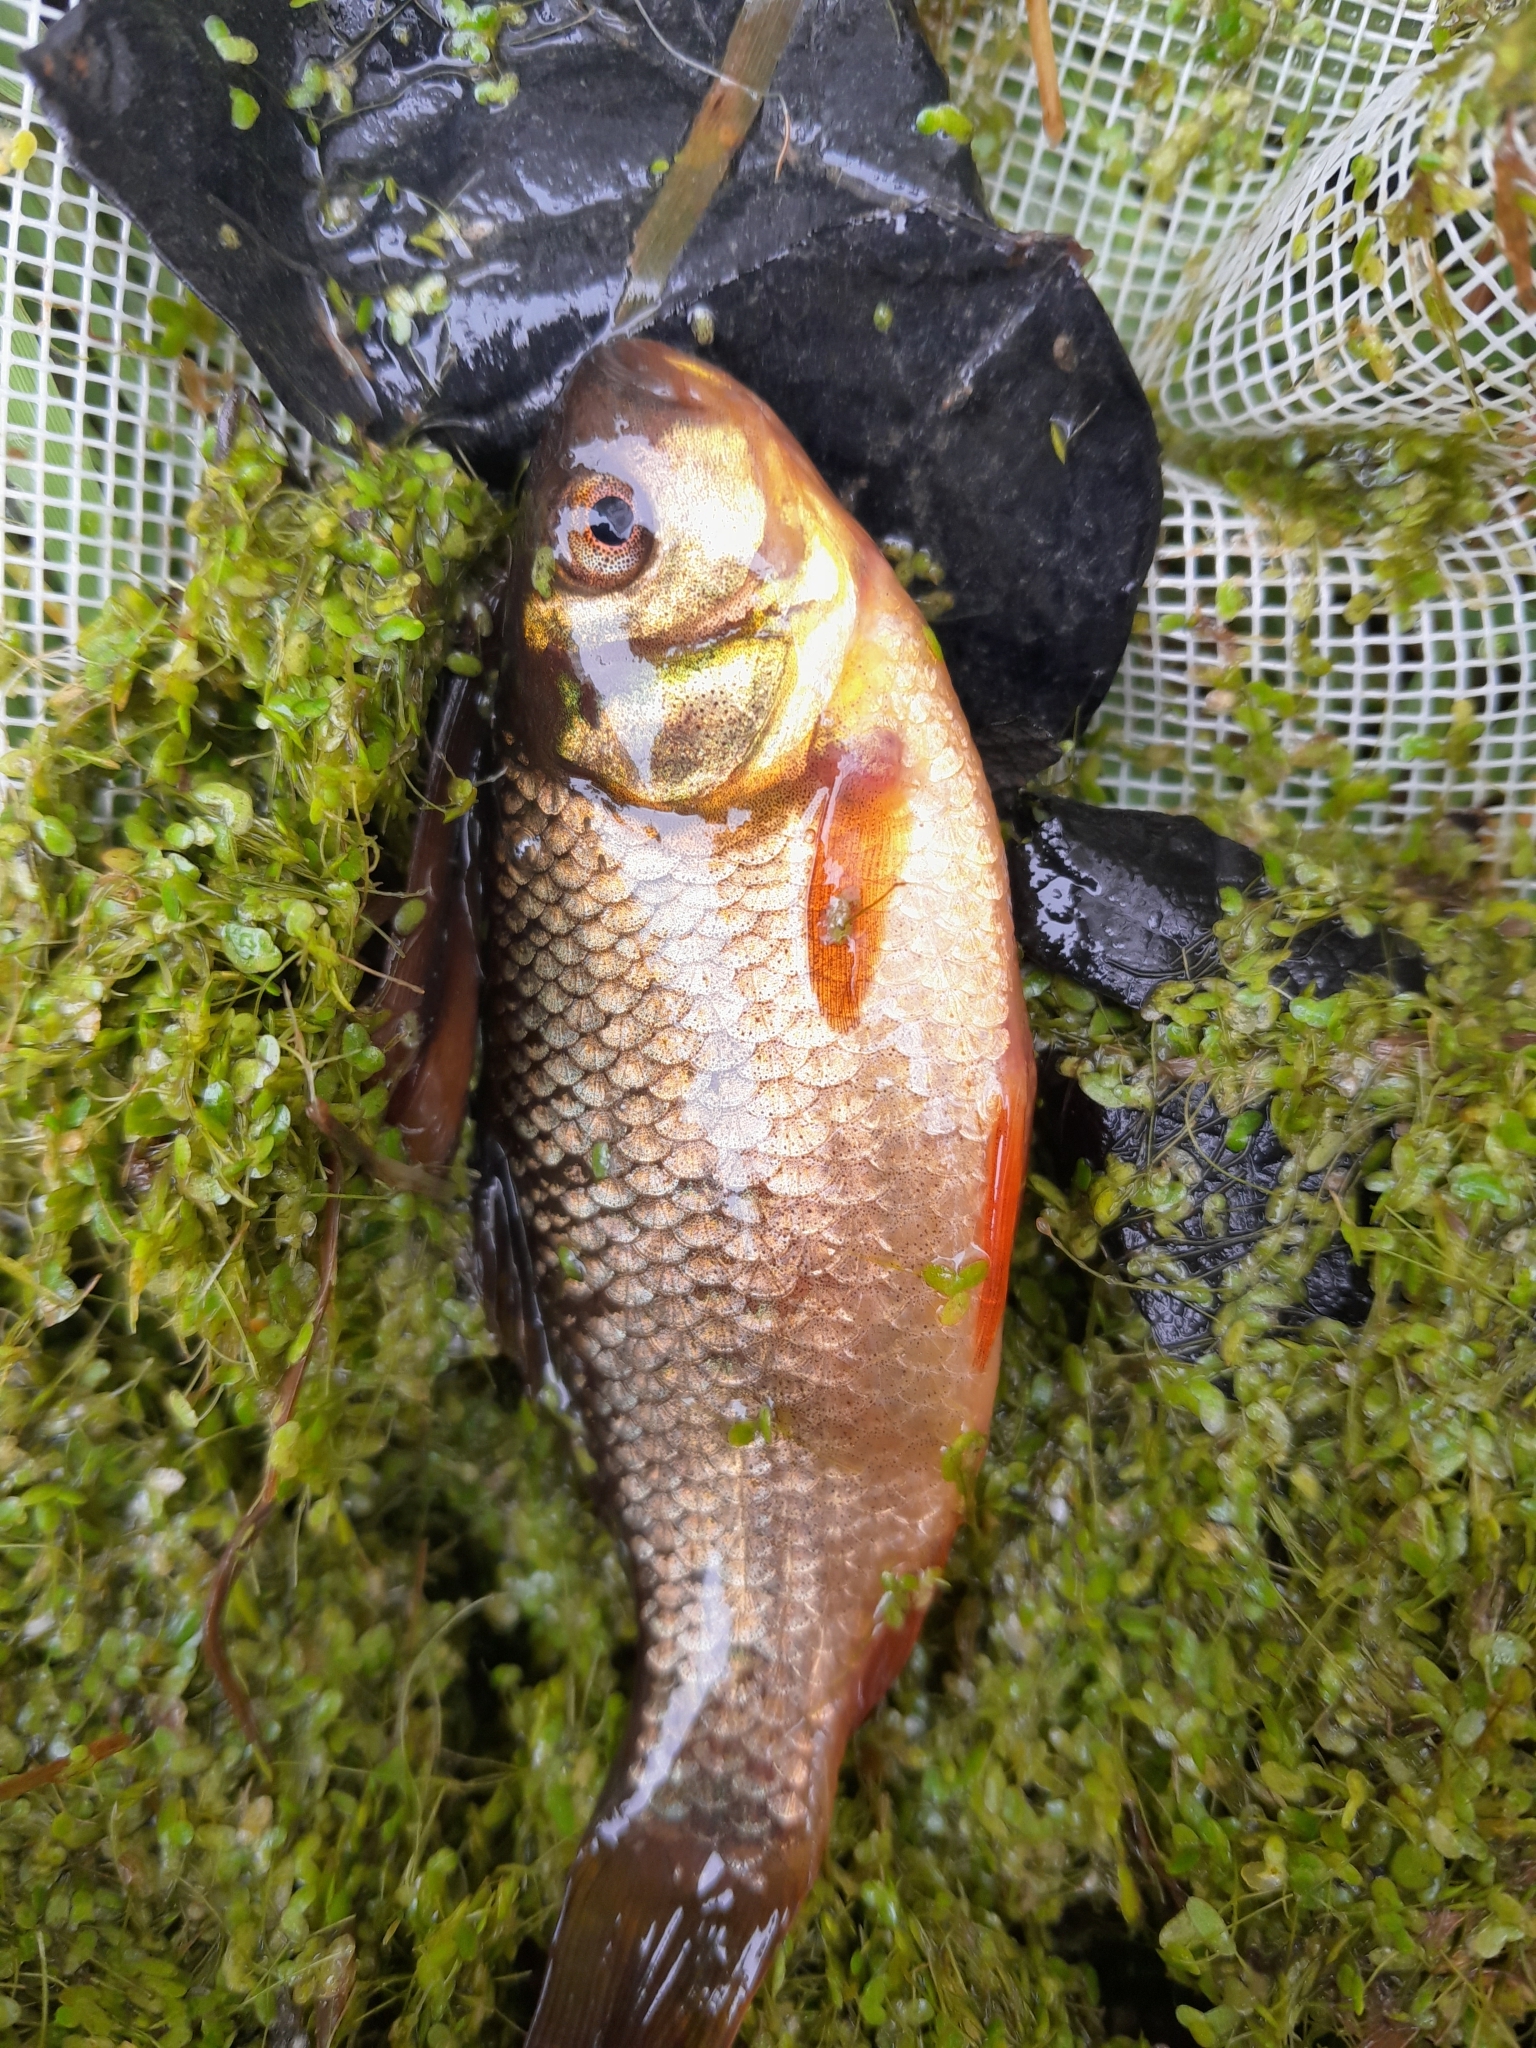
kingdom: Animalia
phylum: Chordata
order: Cypriniformes
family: Cyprinidae
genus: Carassius
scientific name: Carassius carassius
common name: Crucian carp
